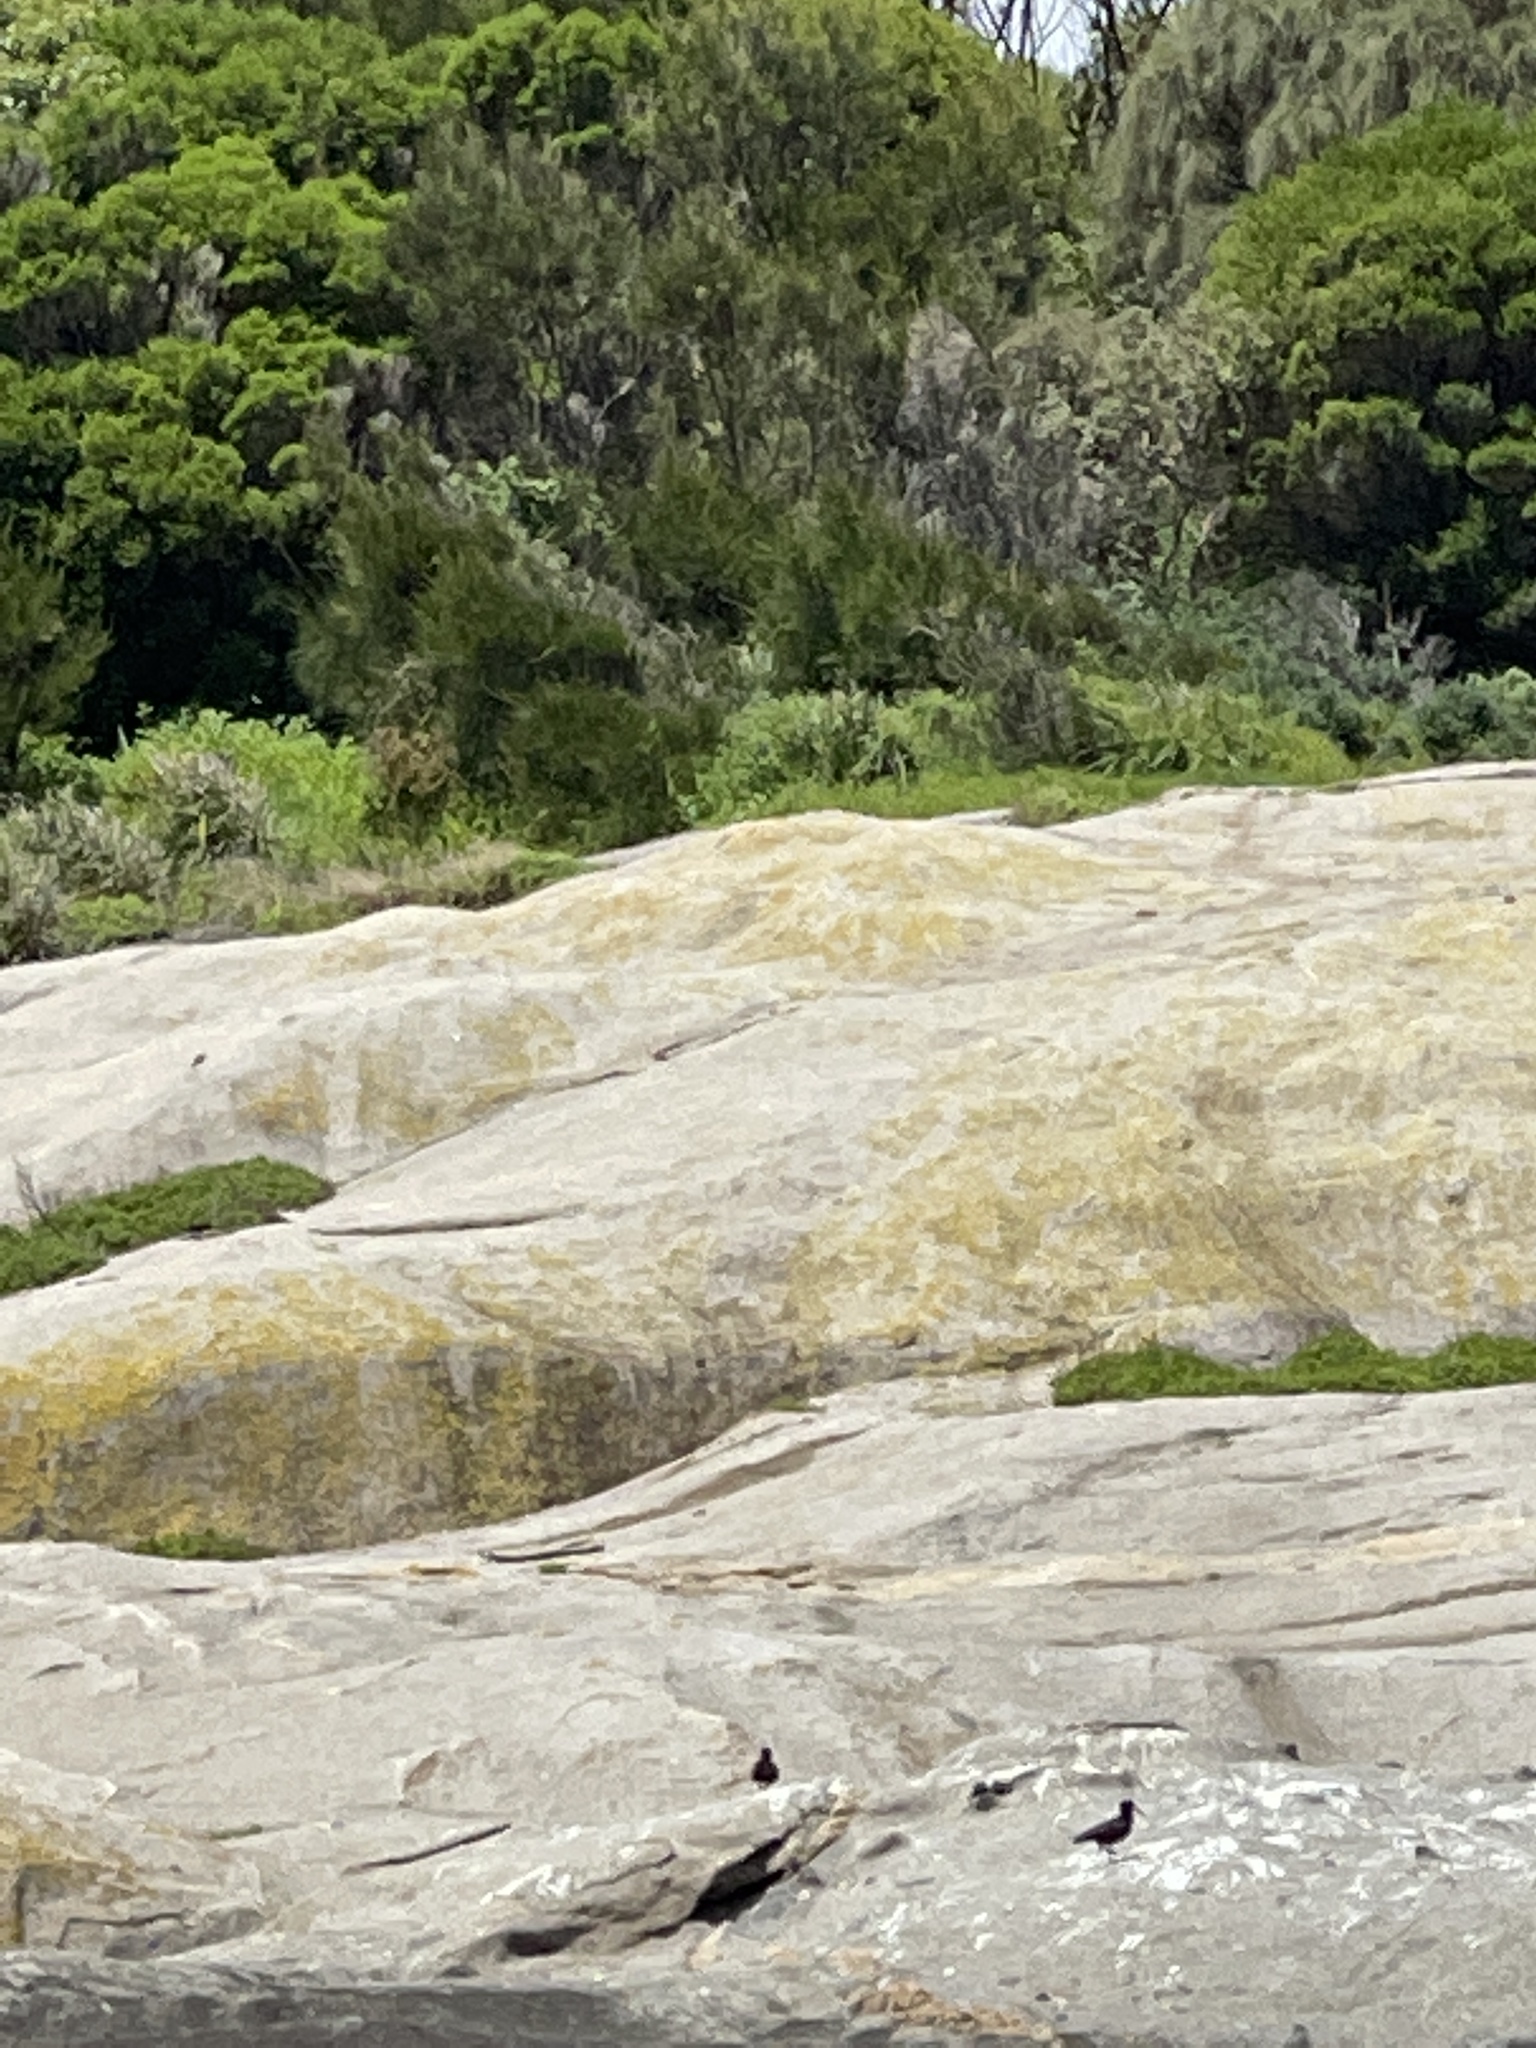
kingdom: Animalia
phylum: Chordata
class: Aves
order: Charadriiformes
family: Haematopodidae
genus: Haematopus
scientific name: Haematopus fuliginosus
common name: Sooty oystercatcher
